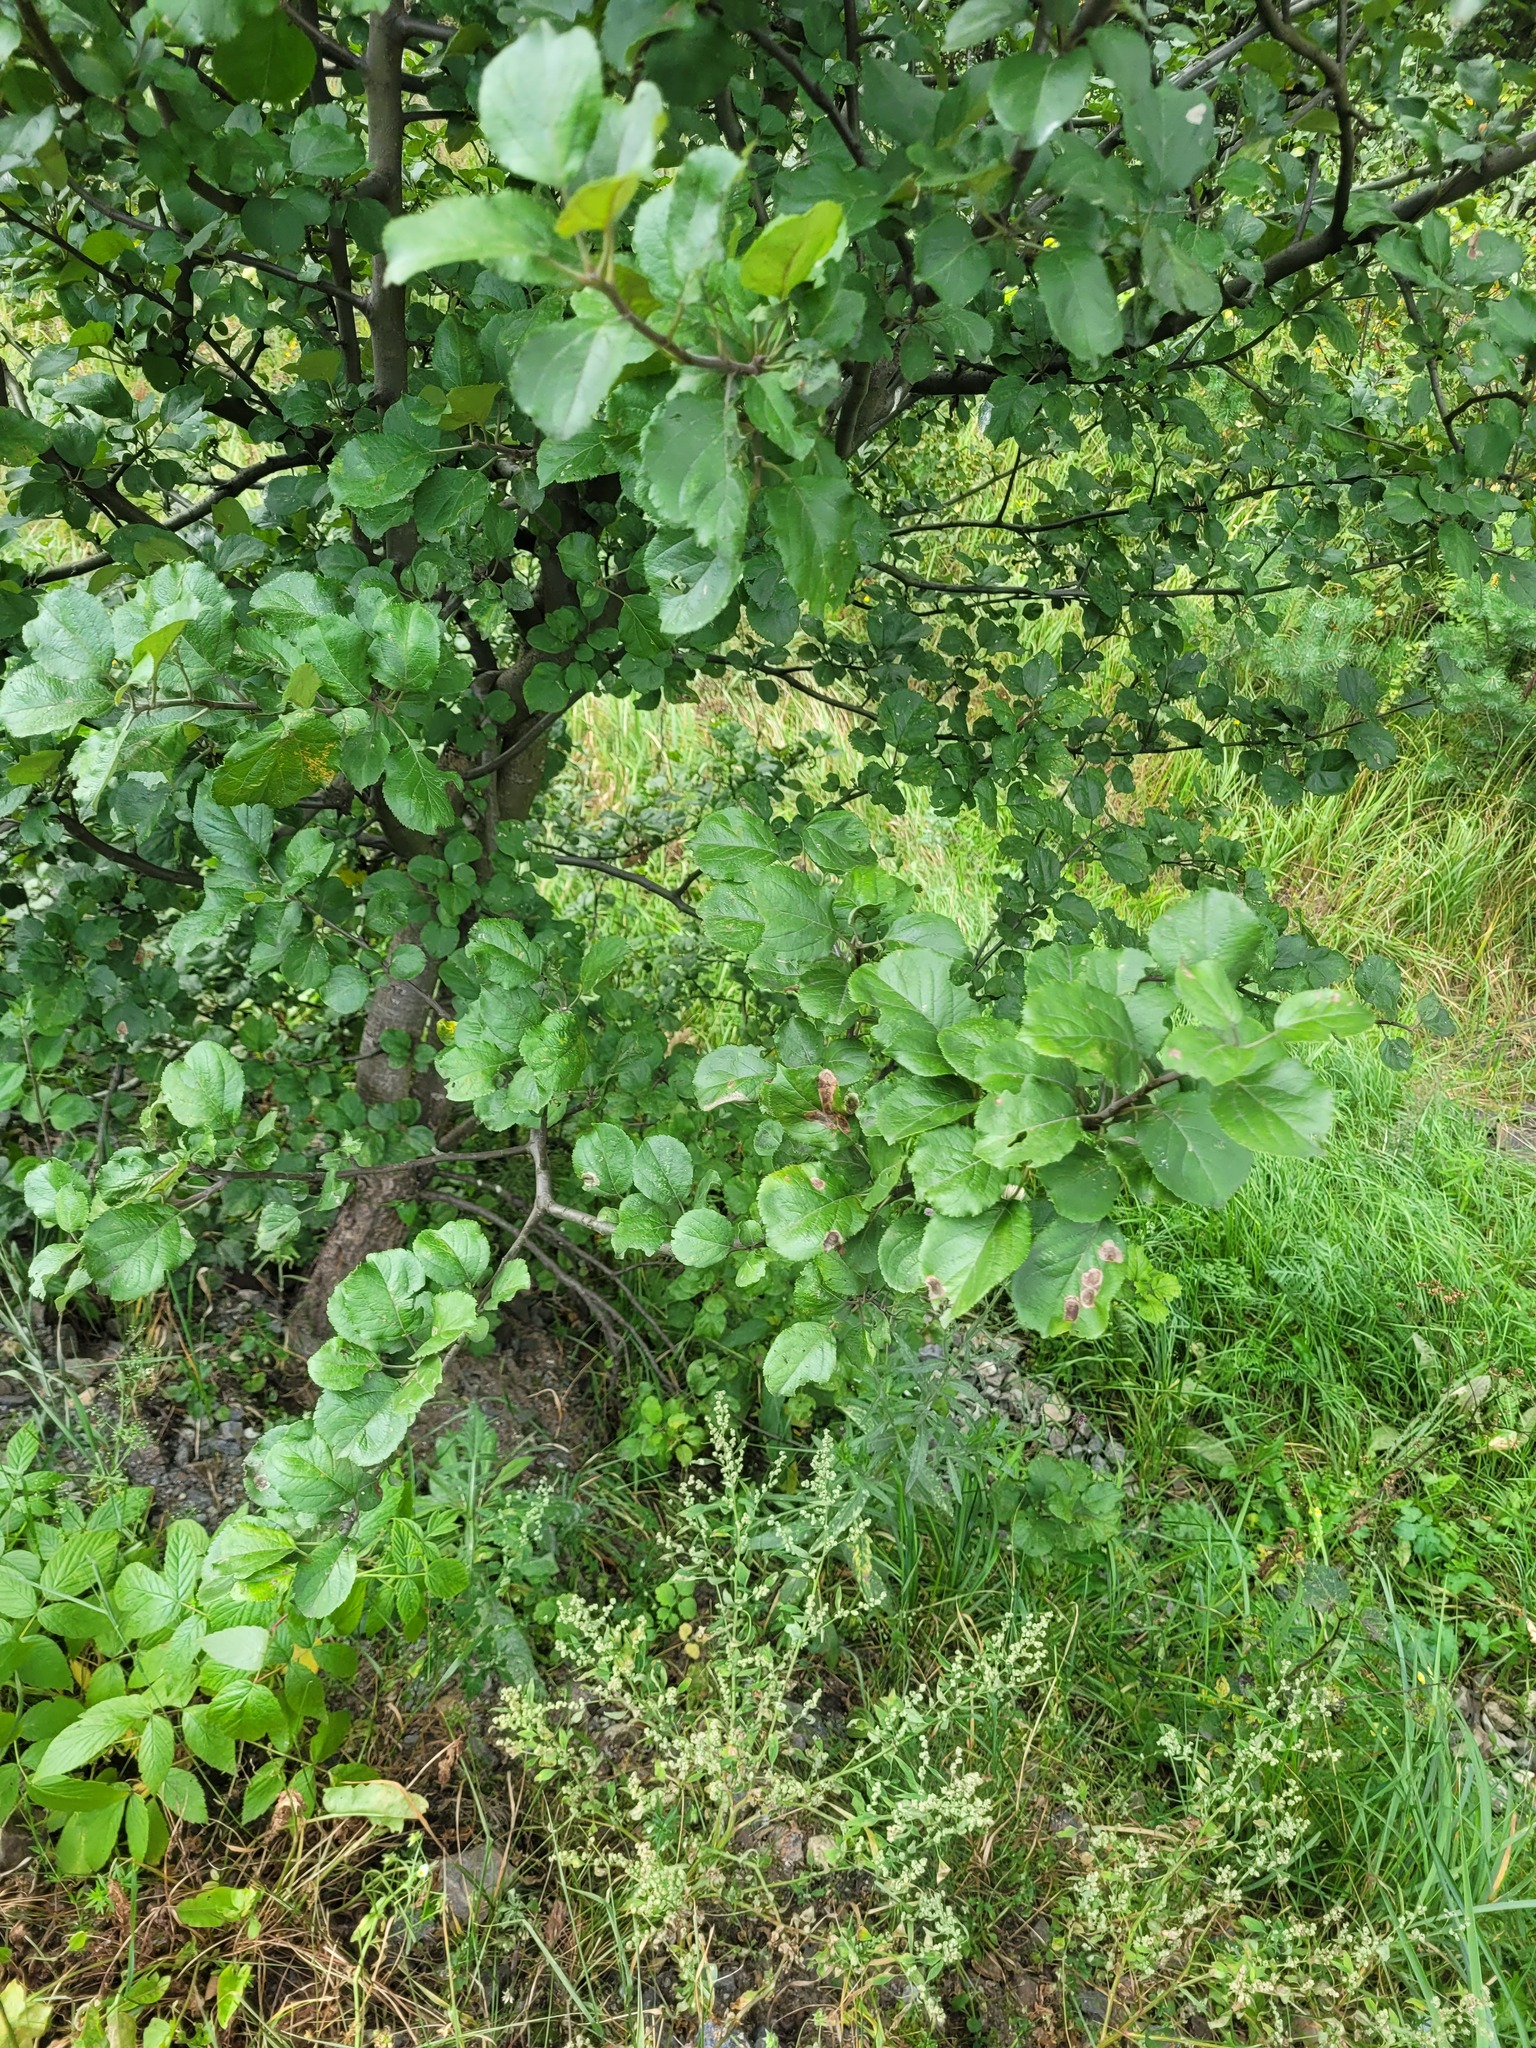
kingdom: Plantae
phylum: Tracheophyta
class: Magnoliopsida
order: Rosales
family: Rosaceae
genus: Malus
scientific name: Malus domestica
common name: Apple
